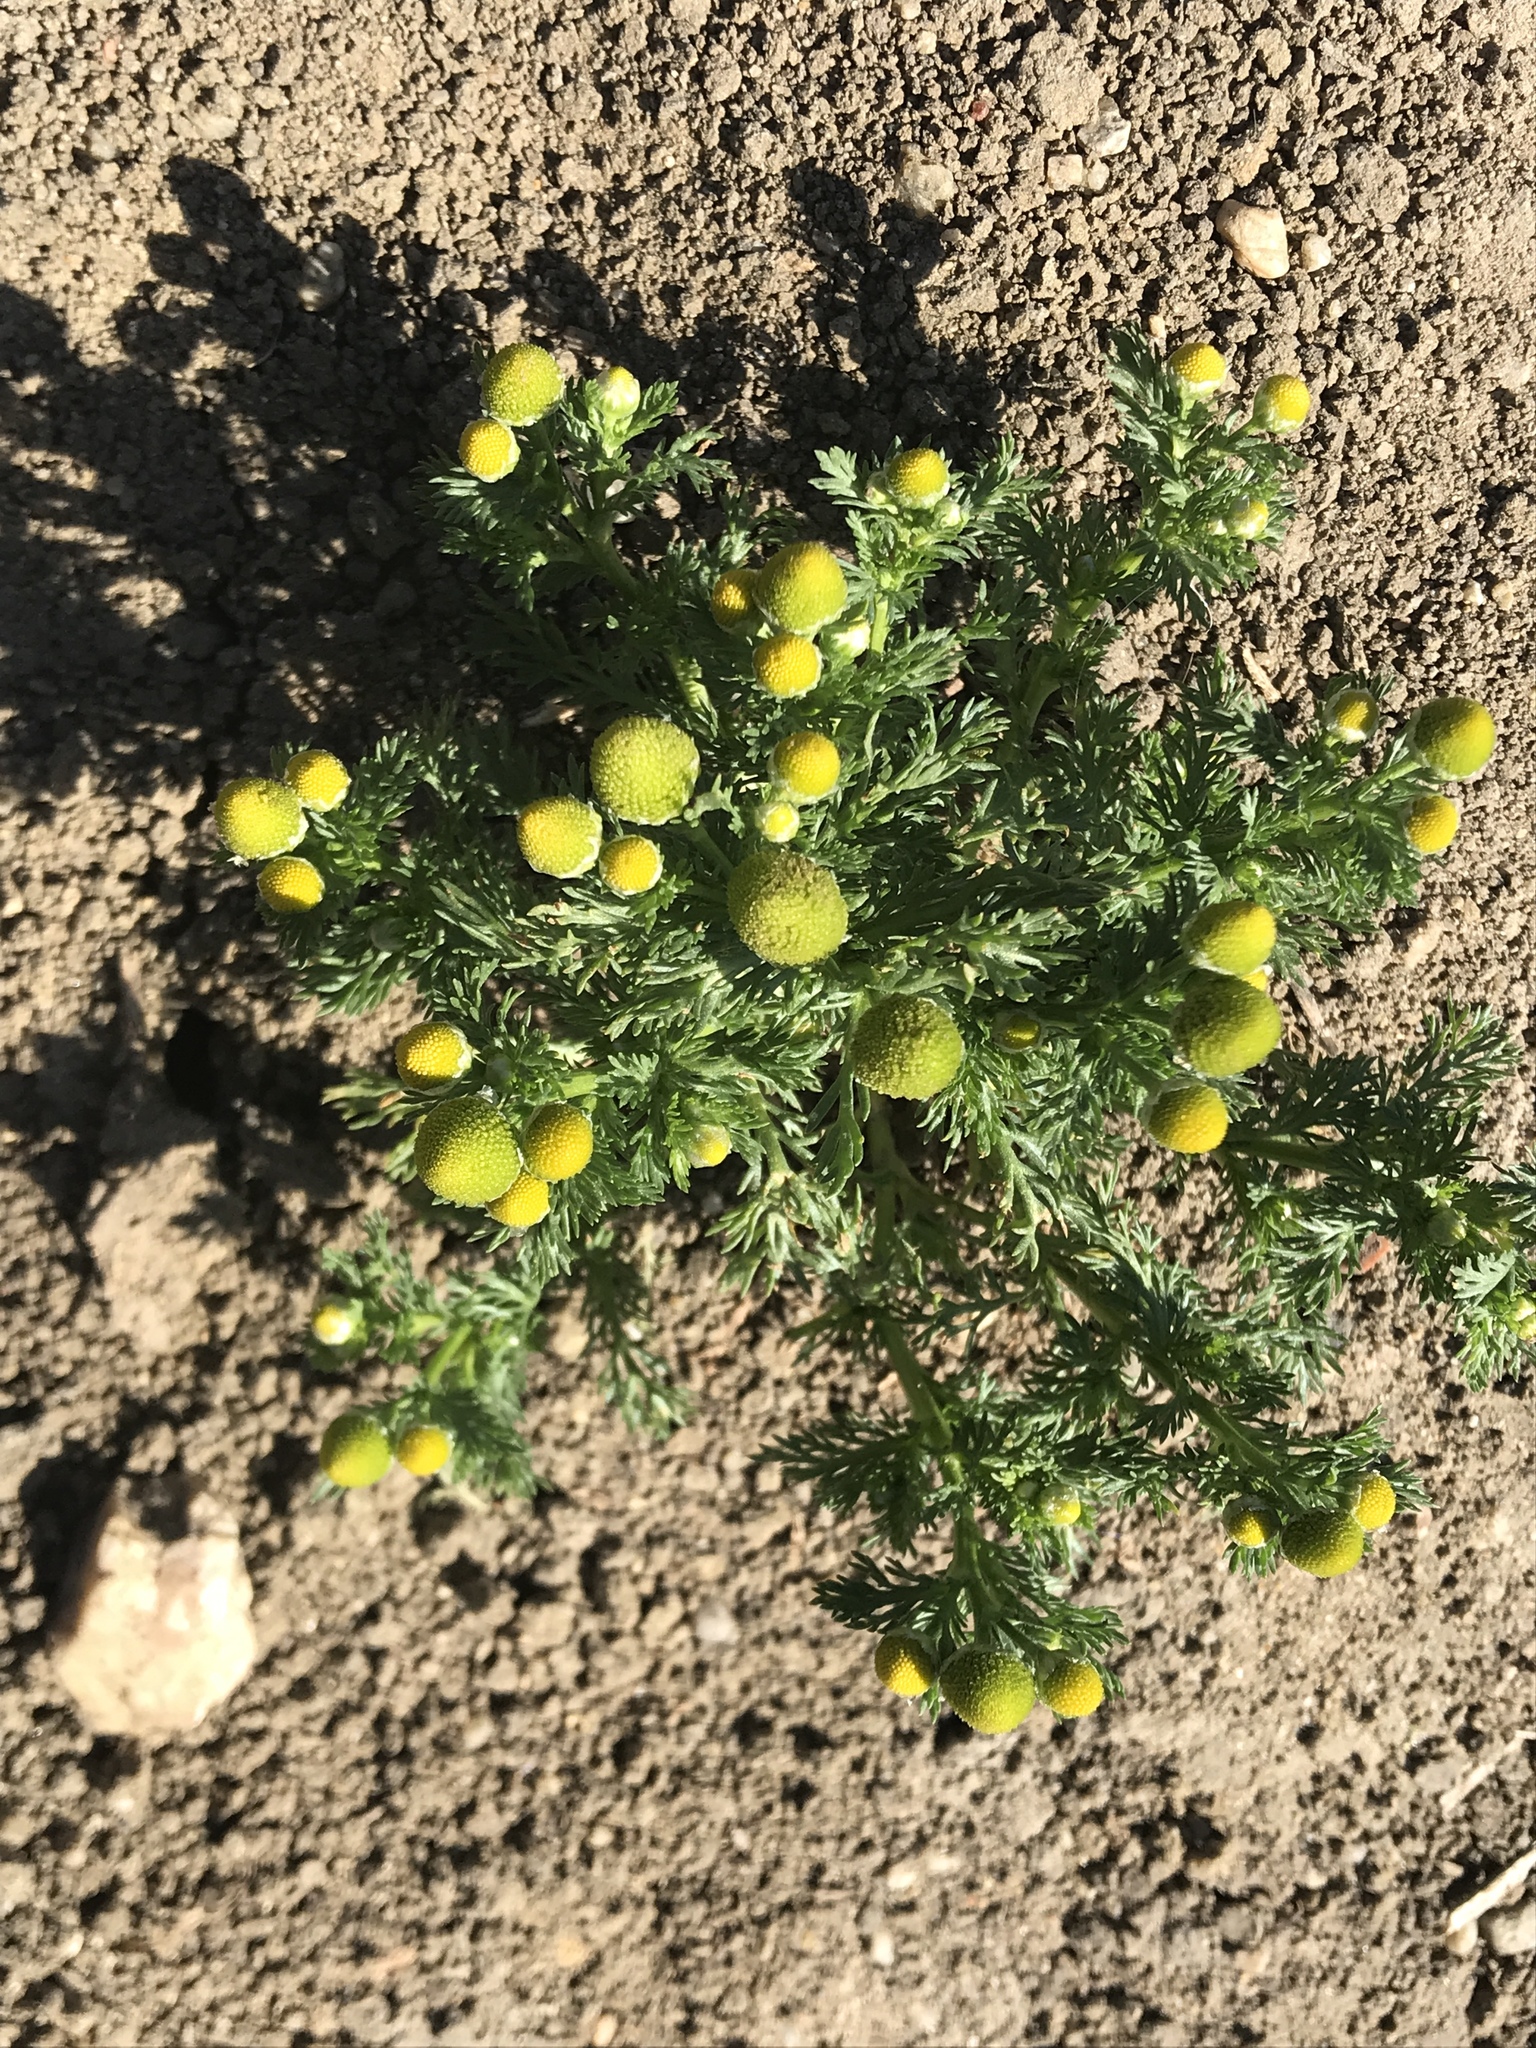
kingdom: Plantae
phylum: Tracheophyta
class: Magnoliopsida
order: Asterales
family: Asteraceae
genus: Matricaria
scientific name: Matricaria discoidea
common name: Disc mayweed
